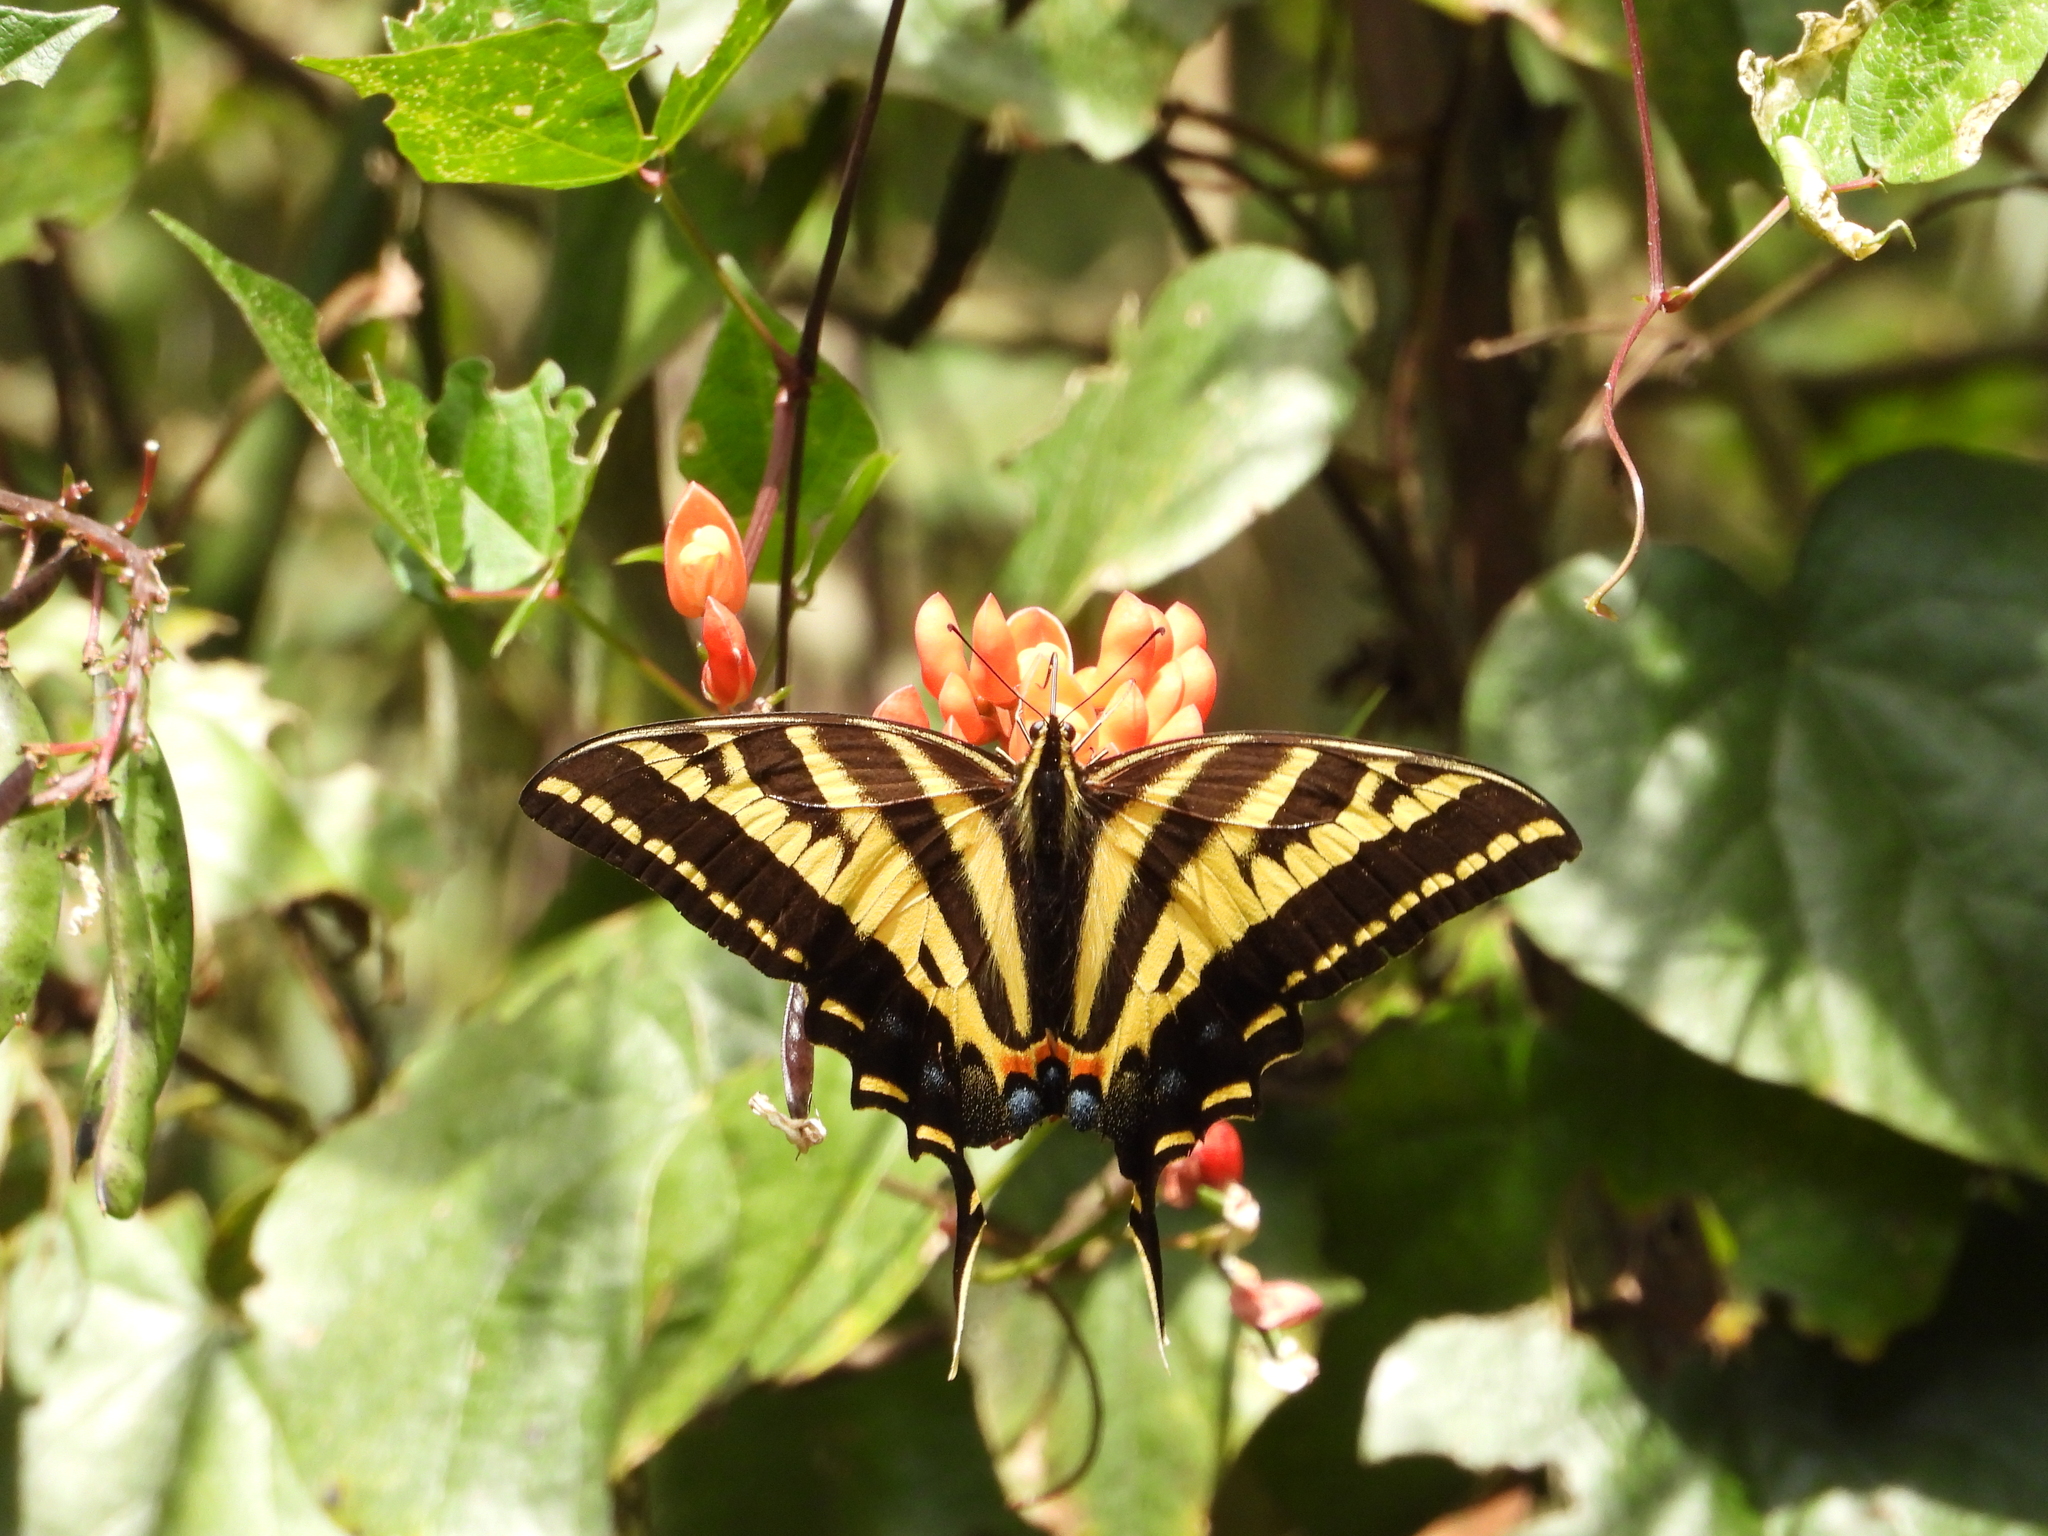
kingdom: Animalia
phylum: Arthropoda
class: Insecta
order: Lepidoptera
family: Papilionidae
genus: Papilio
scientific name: Papilio pilumnus
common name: Three-tailed tiger swallowtail
